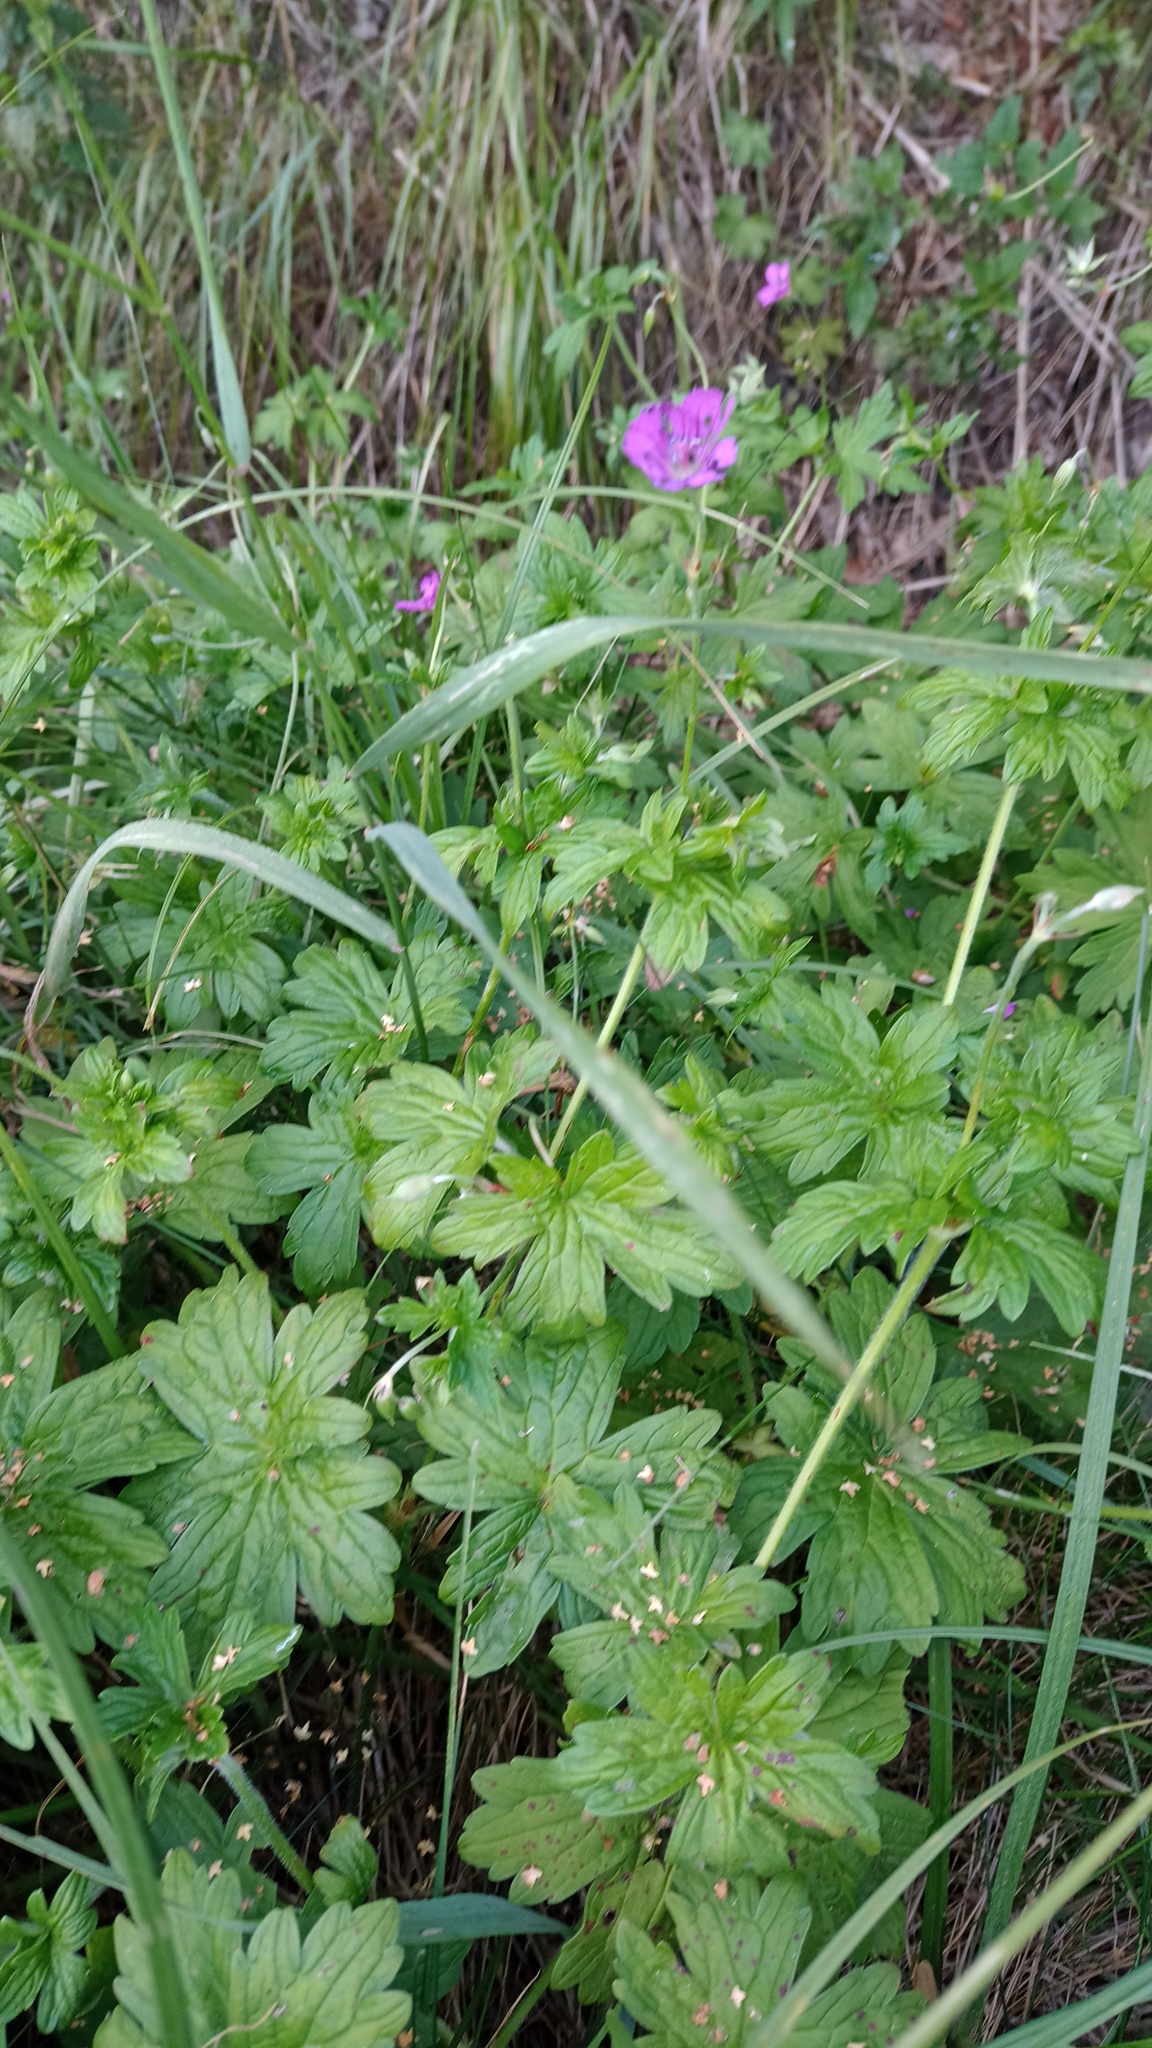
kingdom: Plantae
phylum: Tracheophyta
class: Magnoliopsida
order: Geraniales
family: Geraniaceae
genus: Geranium
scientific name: Geranium palustre
